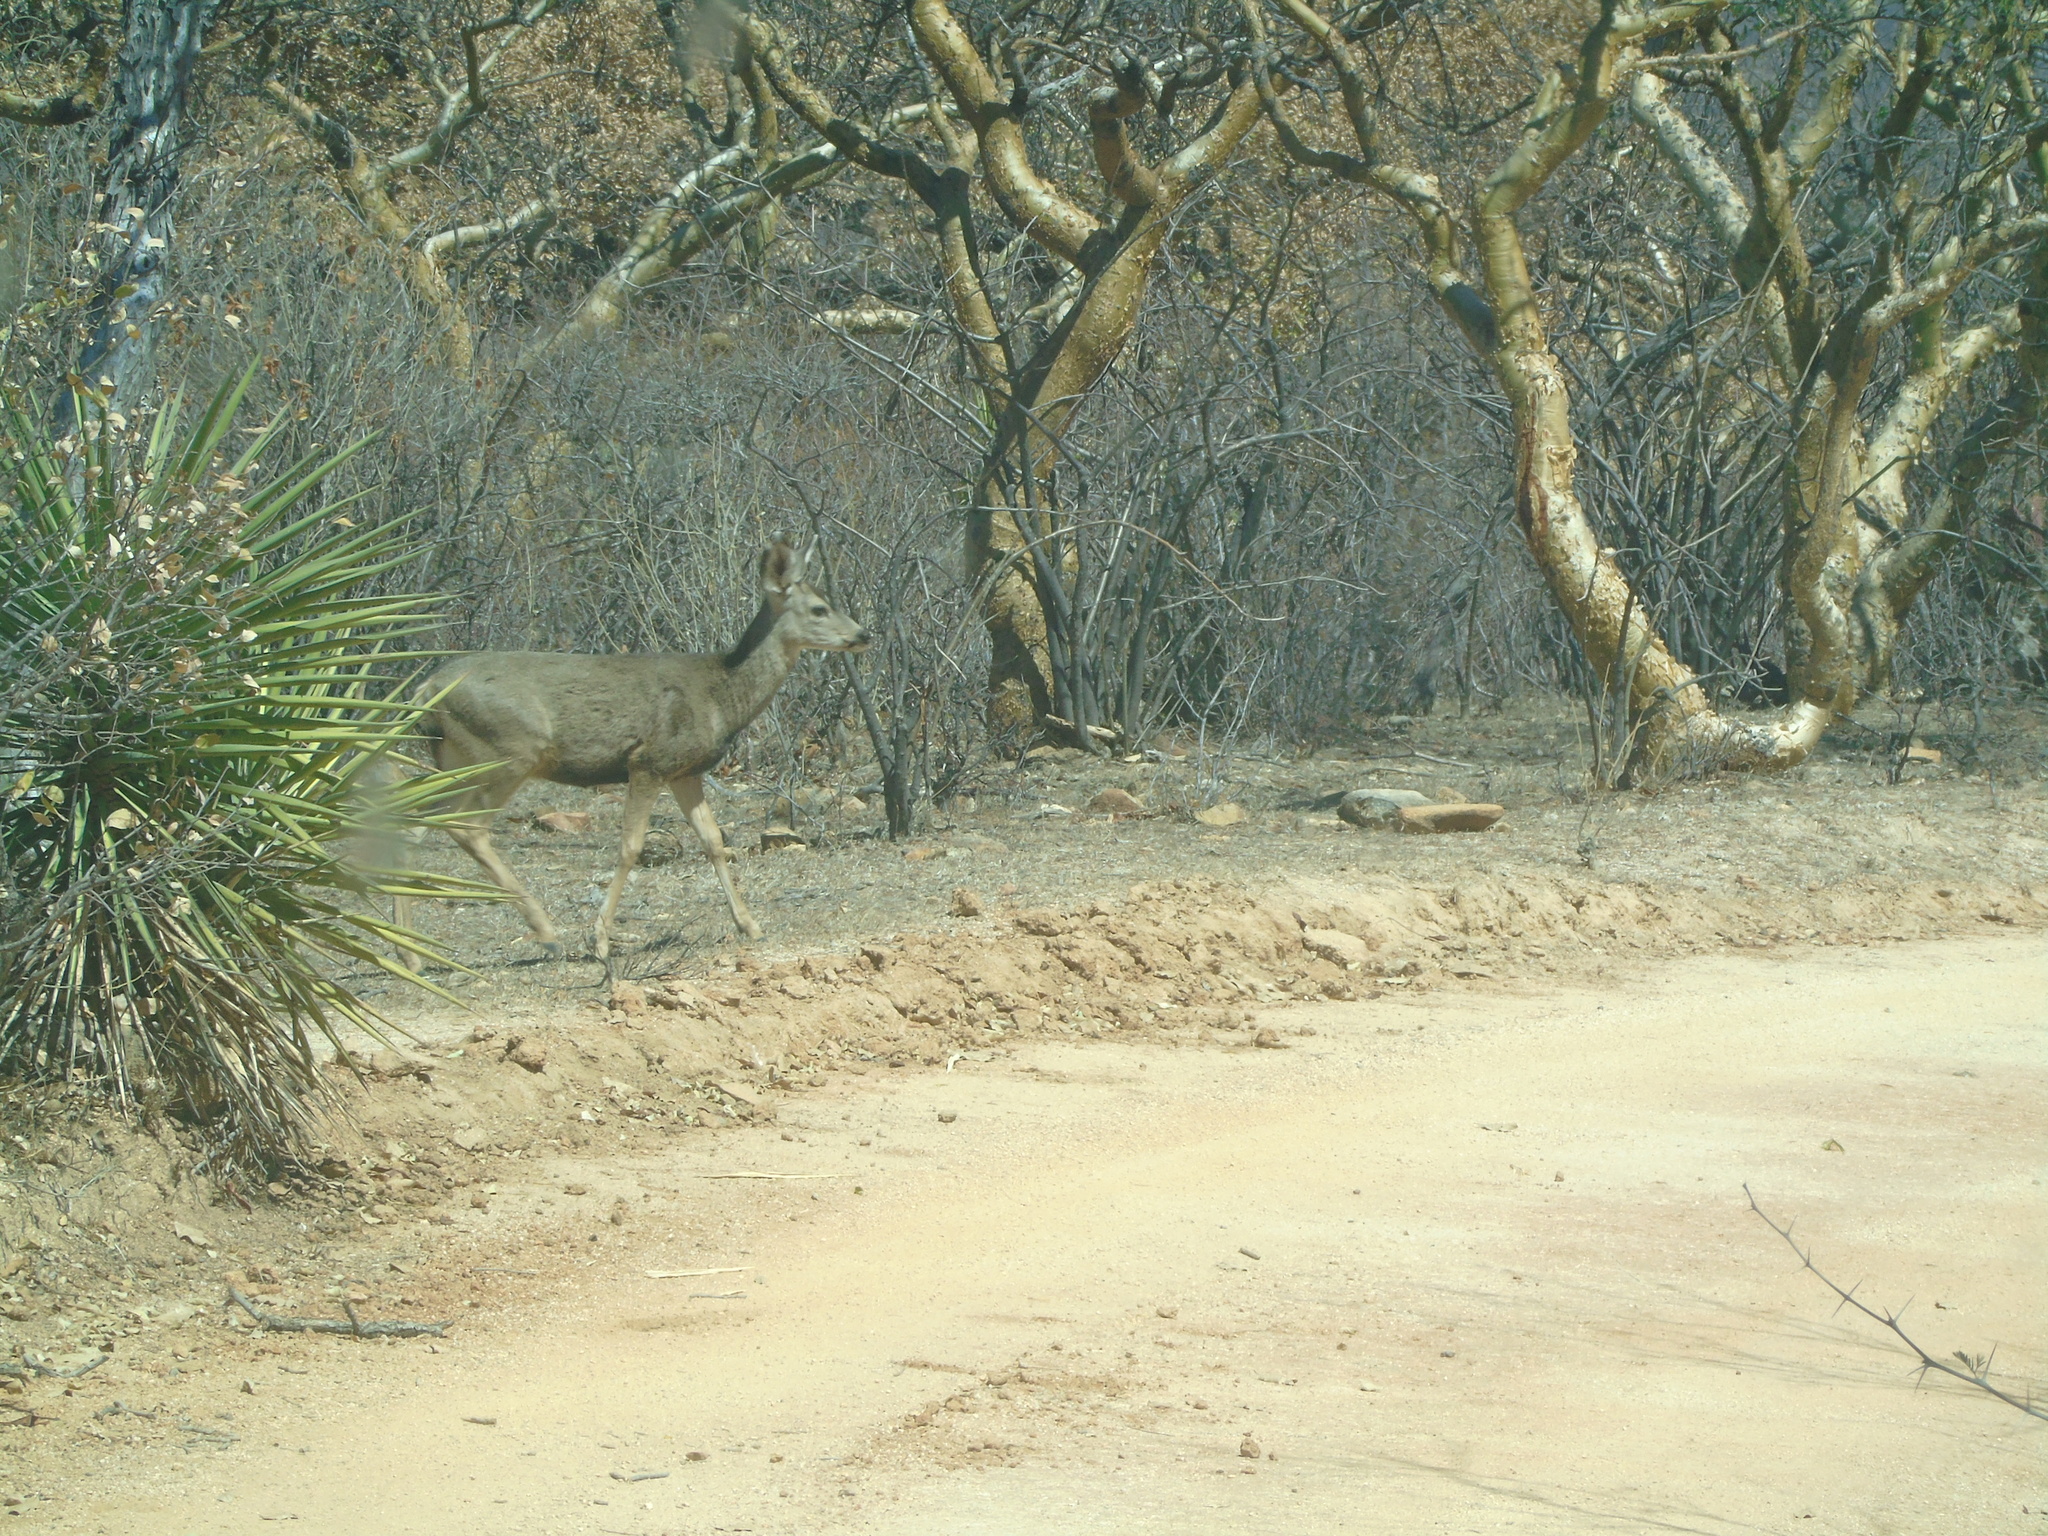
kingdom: Animalia
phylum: Chordata
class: Mammalia
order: Artiodactyla
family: Cervidae
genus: Odocoileus
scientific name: Odocoileus hemionus
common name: Mule deer
